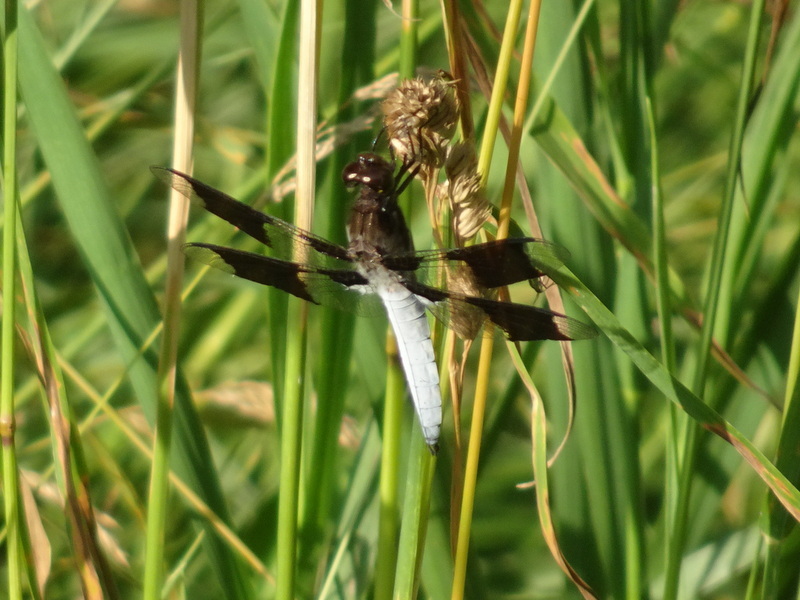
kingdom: Animalia
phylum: Arthropoda
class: Insecta
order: Odonata
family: Libellulidae
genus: Plathemis
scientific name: Plathemis lydia
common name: Common whitetail
